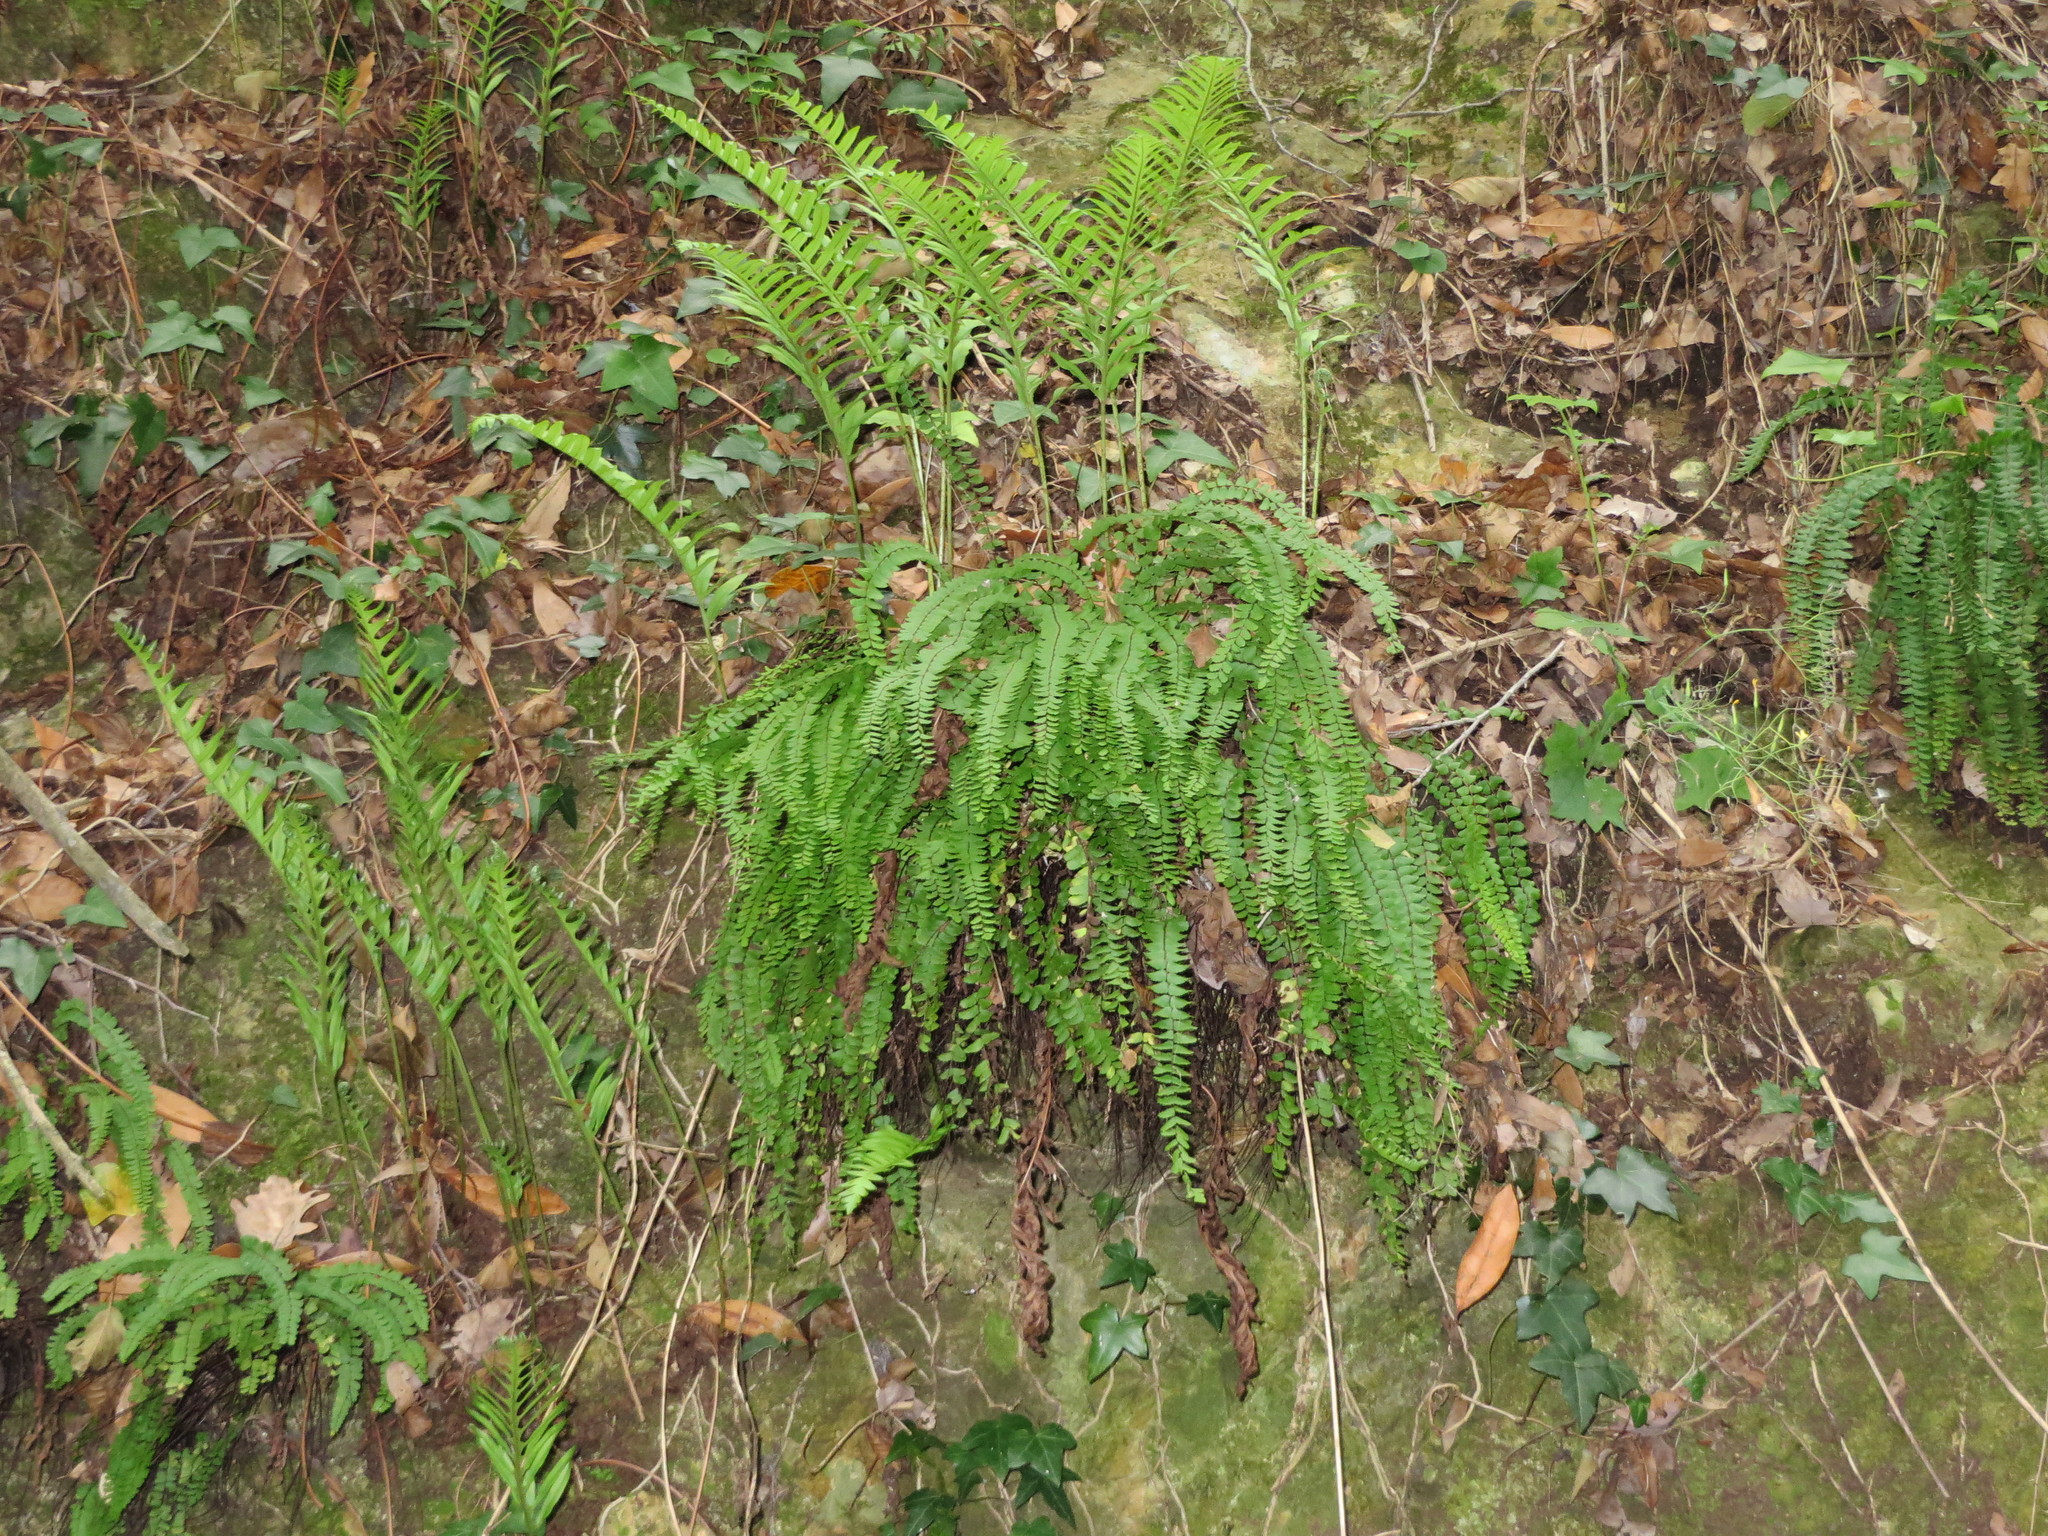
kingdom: Plantae
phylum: Tracheophyta
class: Polypodiopsida
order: Polypodiales
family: Aspleniaceae
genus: Asplenium
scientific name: Asplenium quadrivalens
